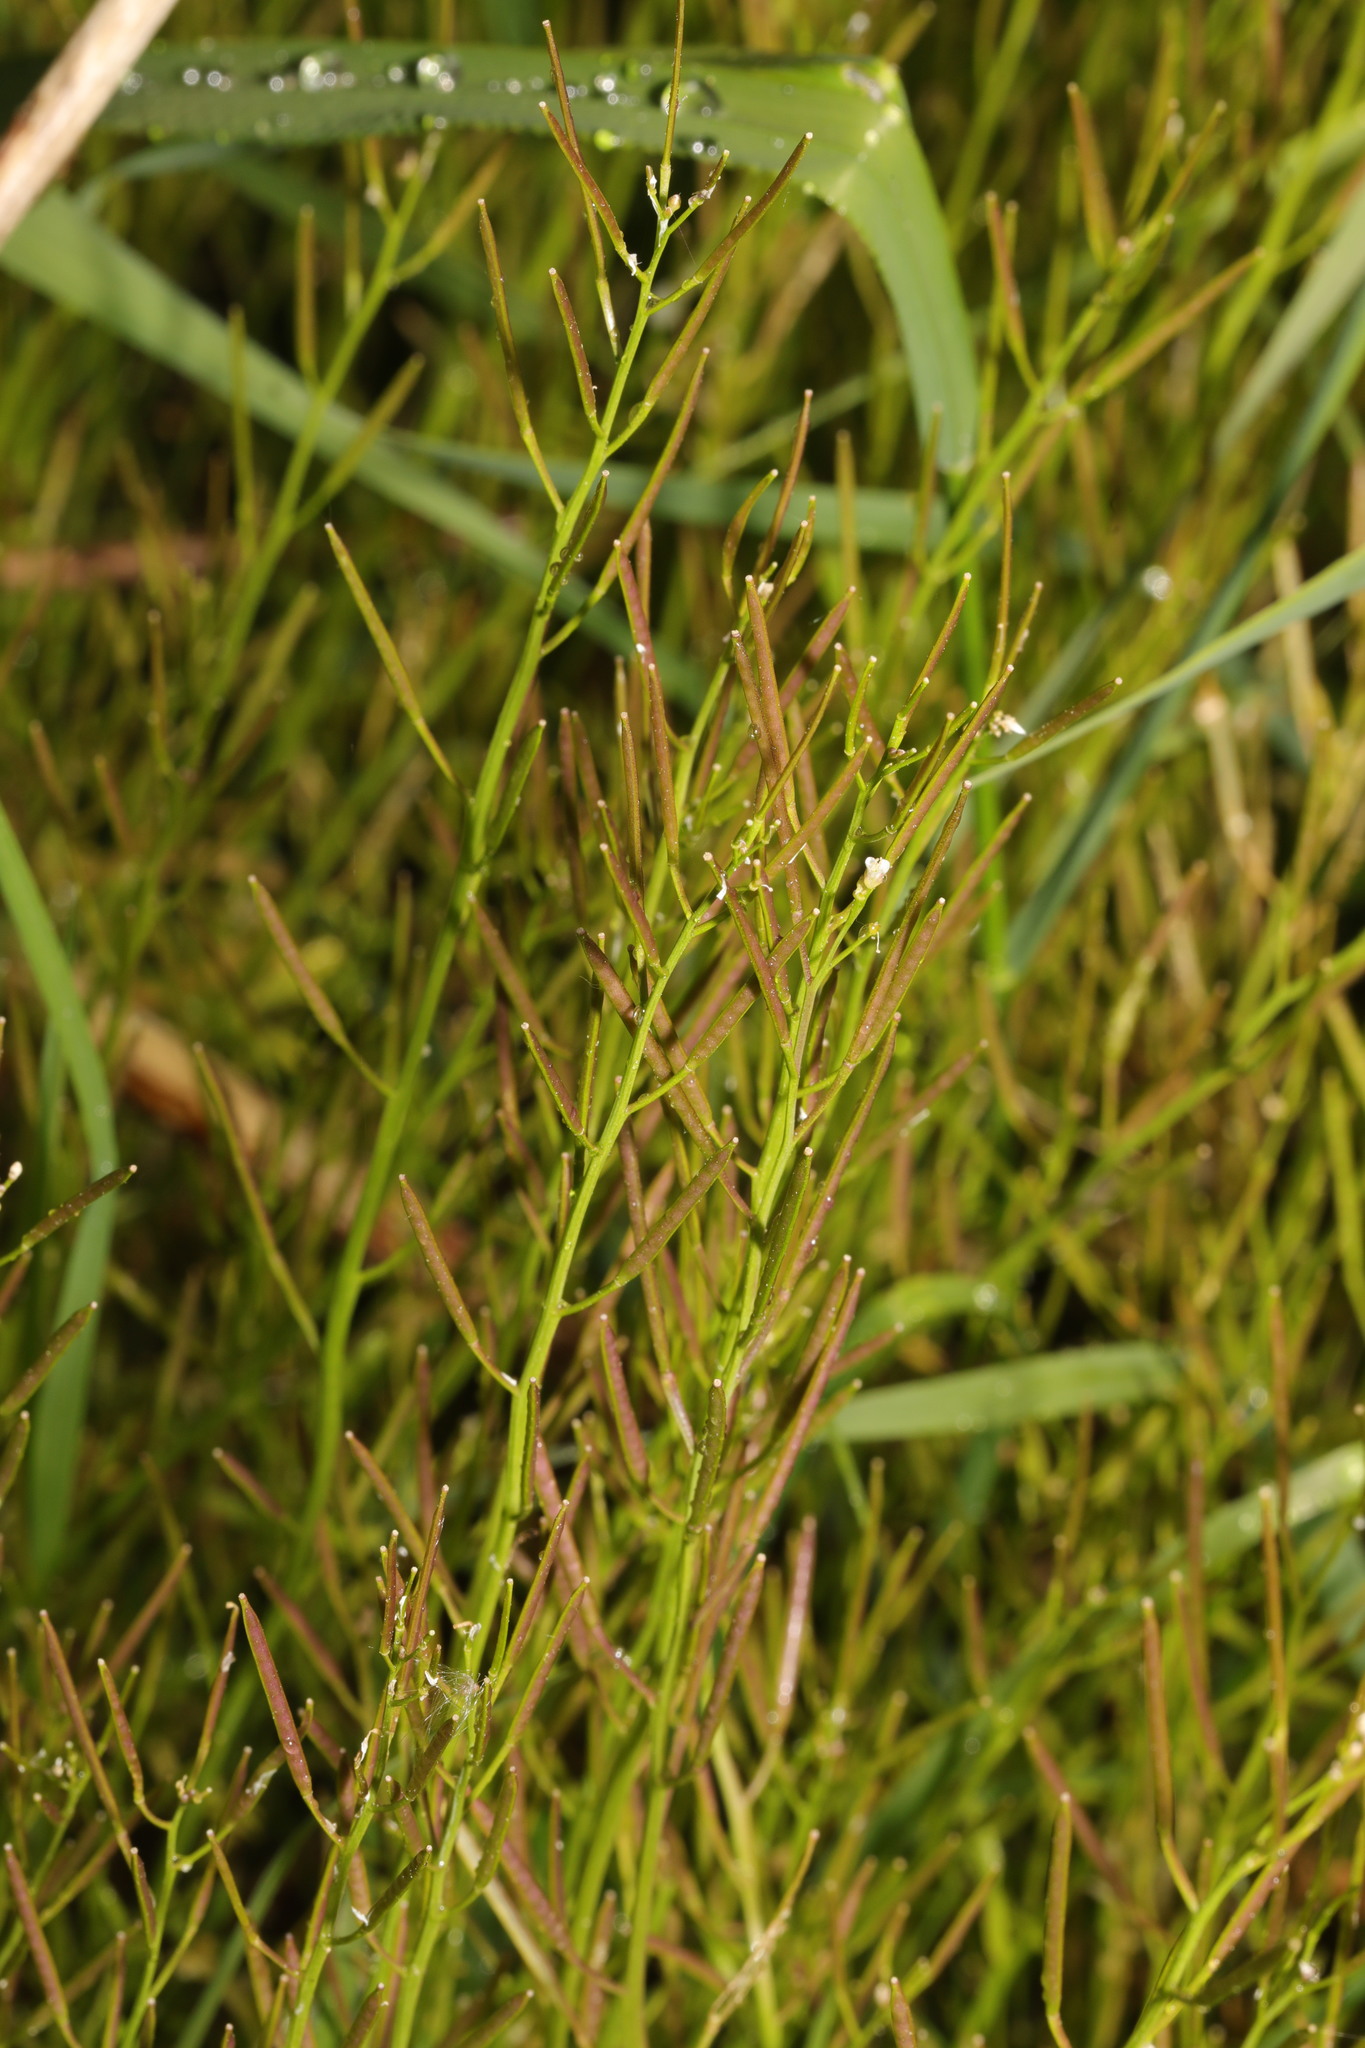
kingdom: Plantae
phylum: Tracheophyta
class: Magnoliopsida
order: Brassicales
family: Brassicaceae
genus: Cardamine
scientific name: Cardamine flexuosa
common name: Woodland bittercress
